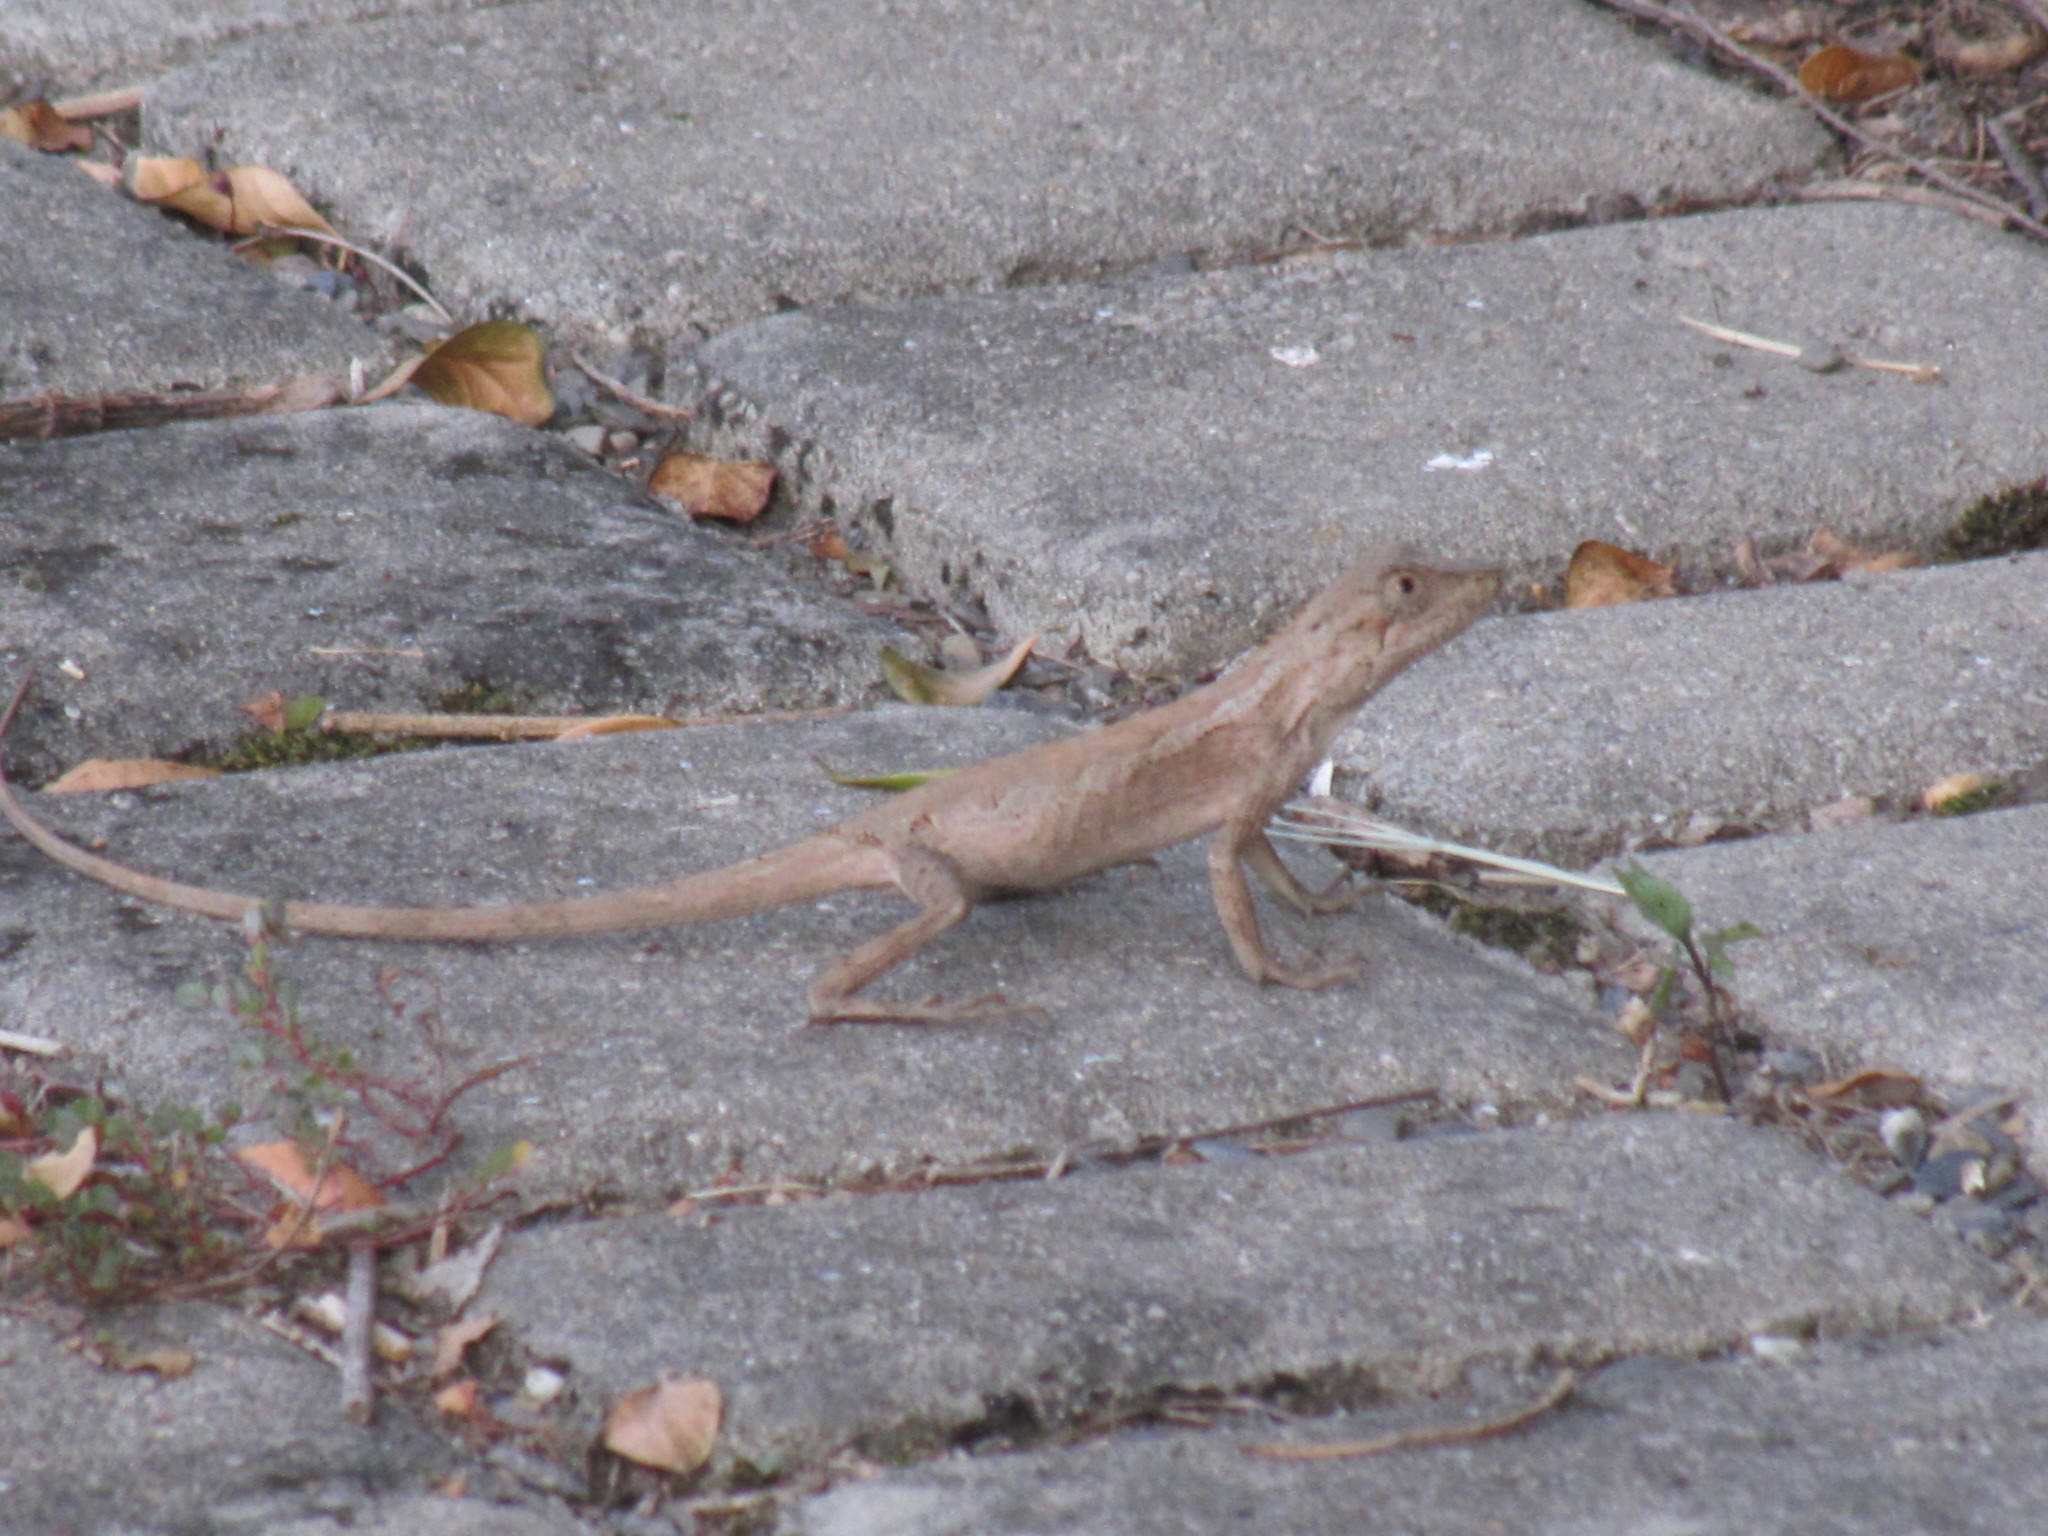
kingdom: Animalia
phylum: Chordata
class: Squamata
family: Agamidae
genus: Diploderma
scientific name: Diploderma swinhonis
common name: Taiwan japalure
